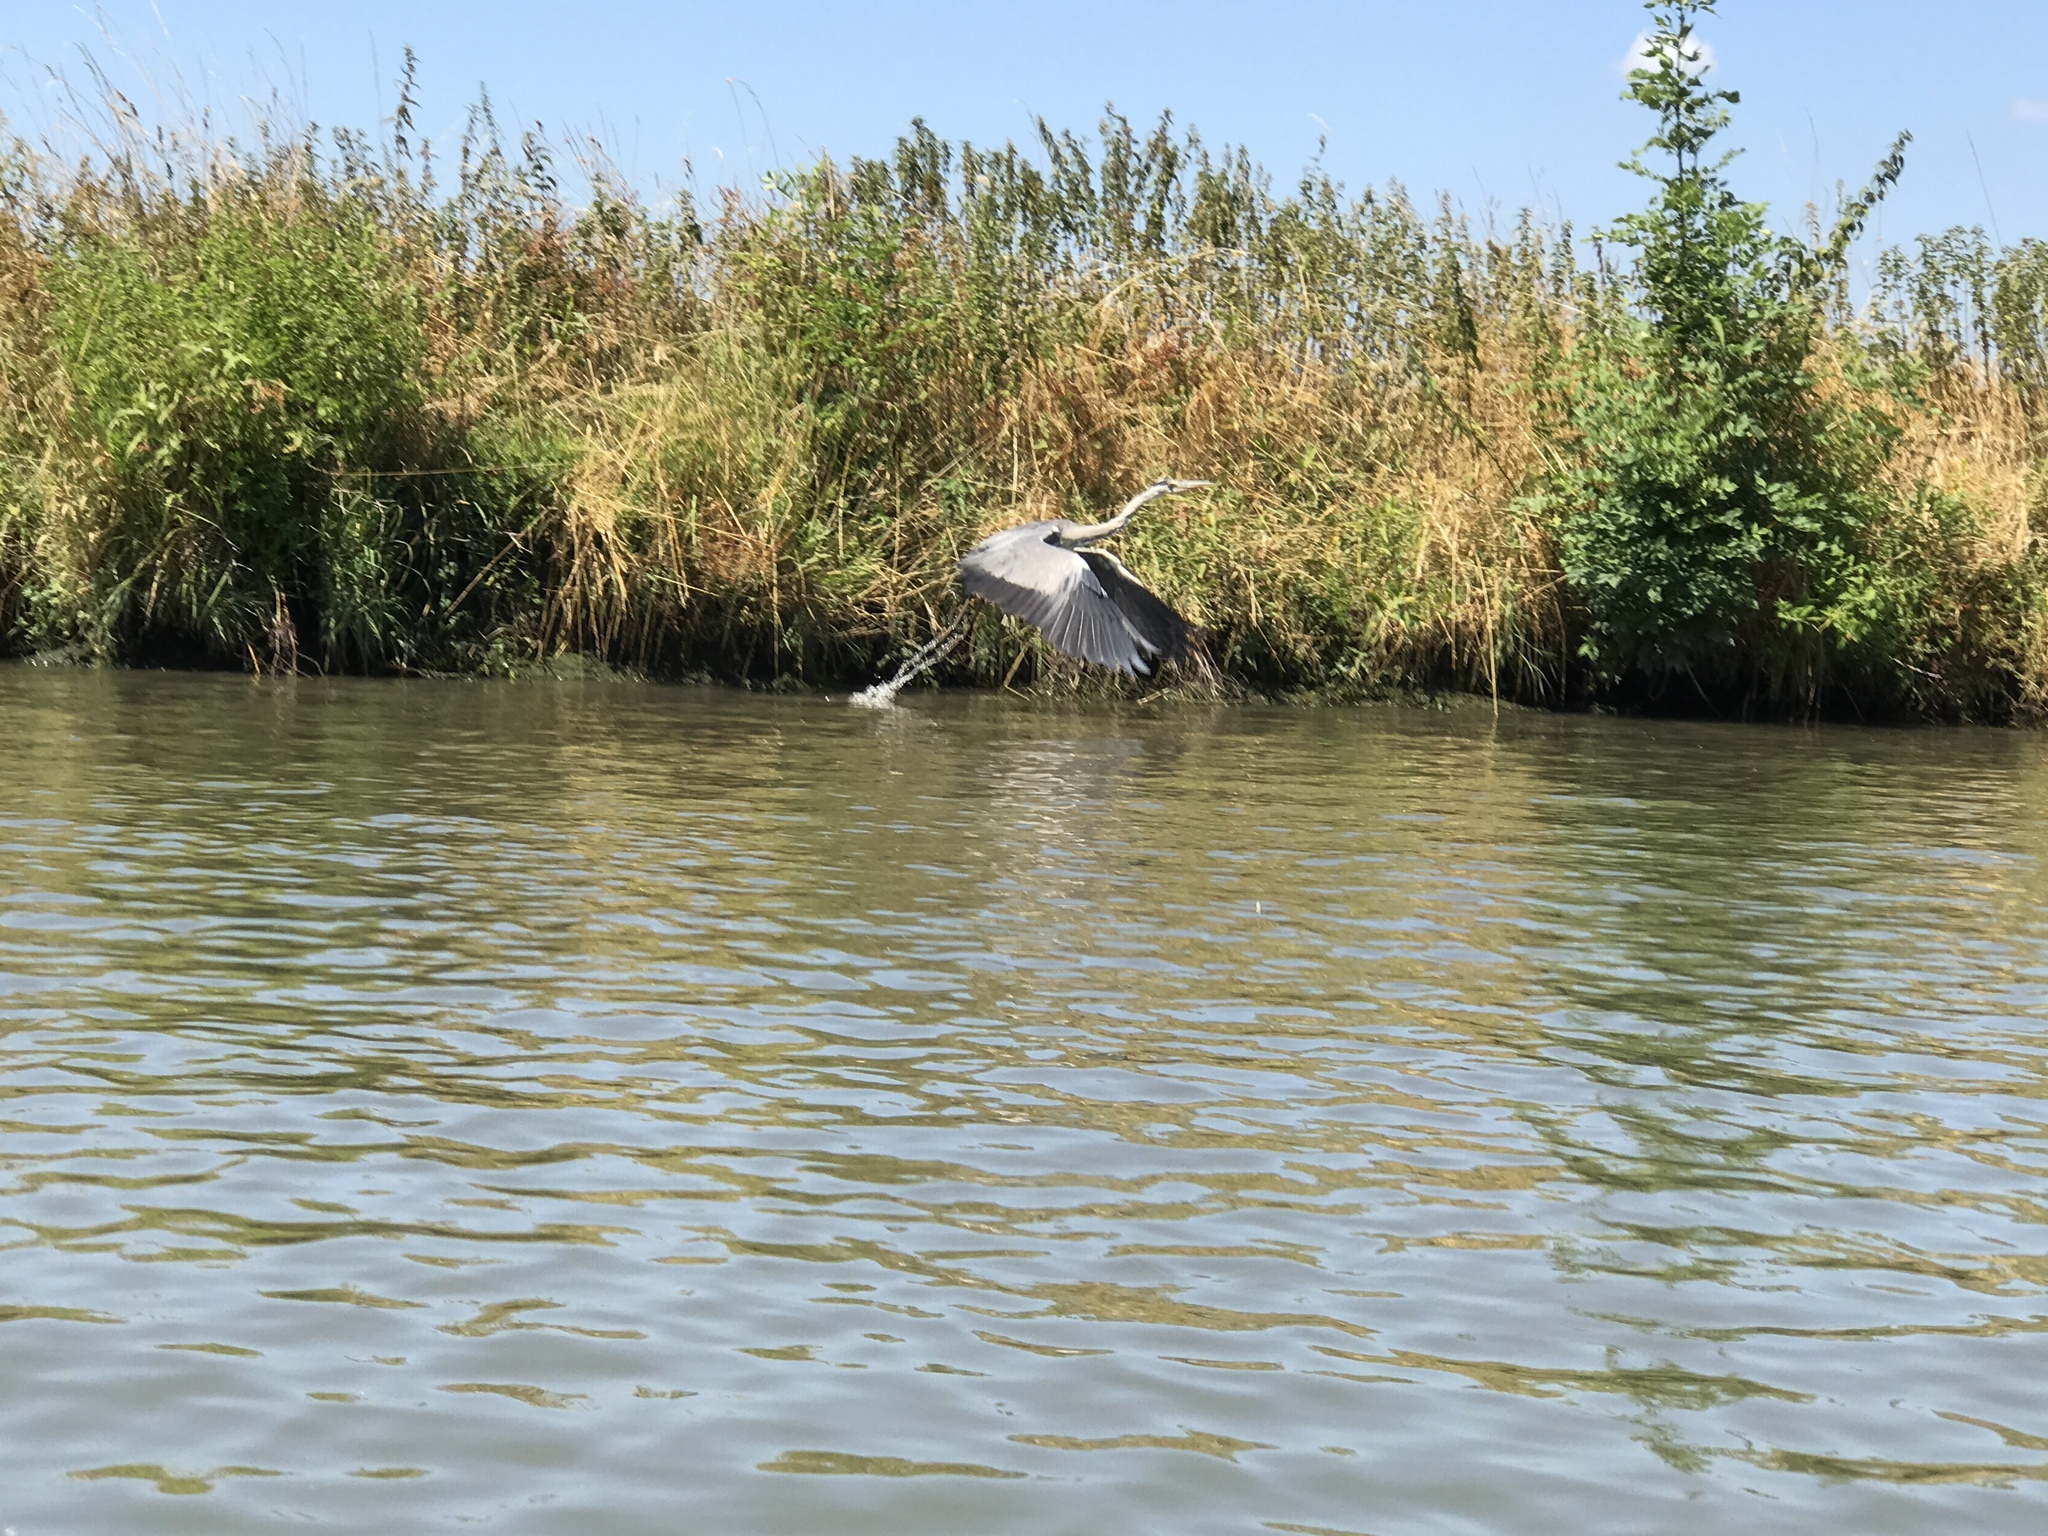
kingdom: Animalia
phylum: Chordata
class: Aves
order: Pelecaniformes
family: Ardeidae
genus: Ardea
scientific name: Ardea cinerea
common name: Grey heron
